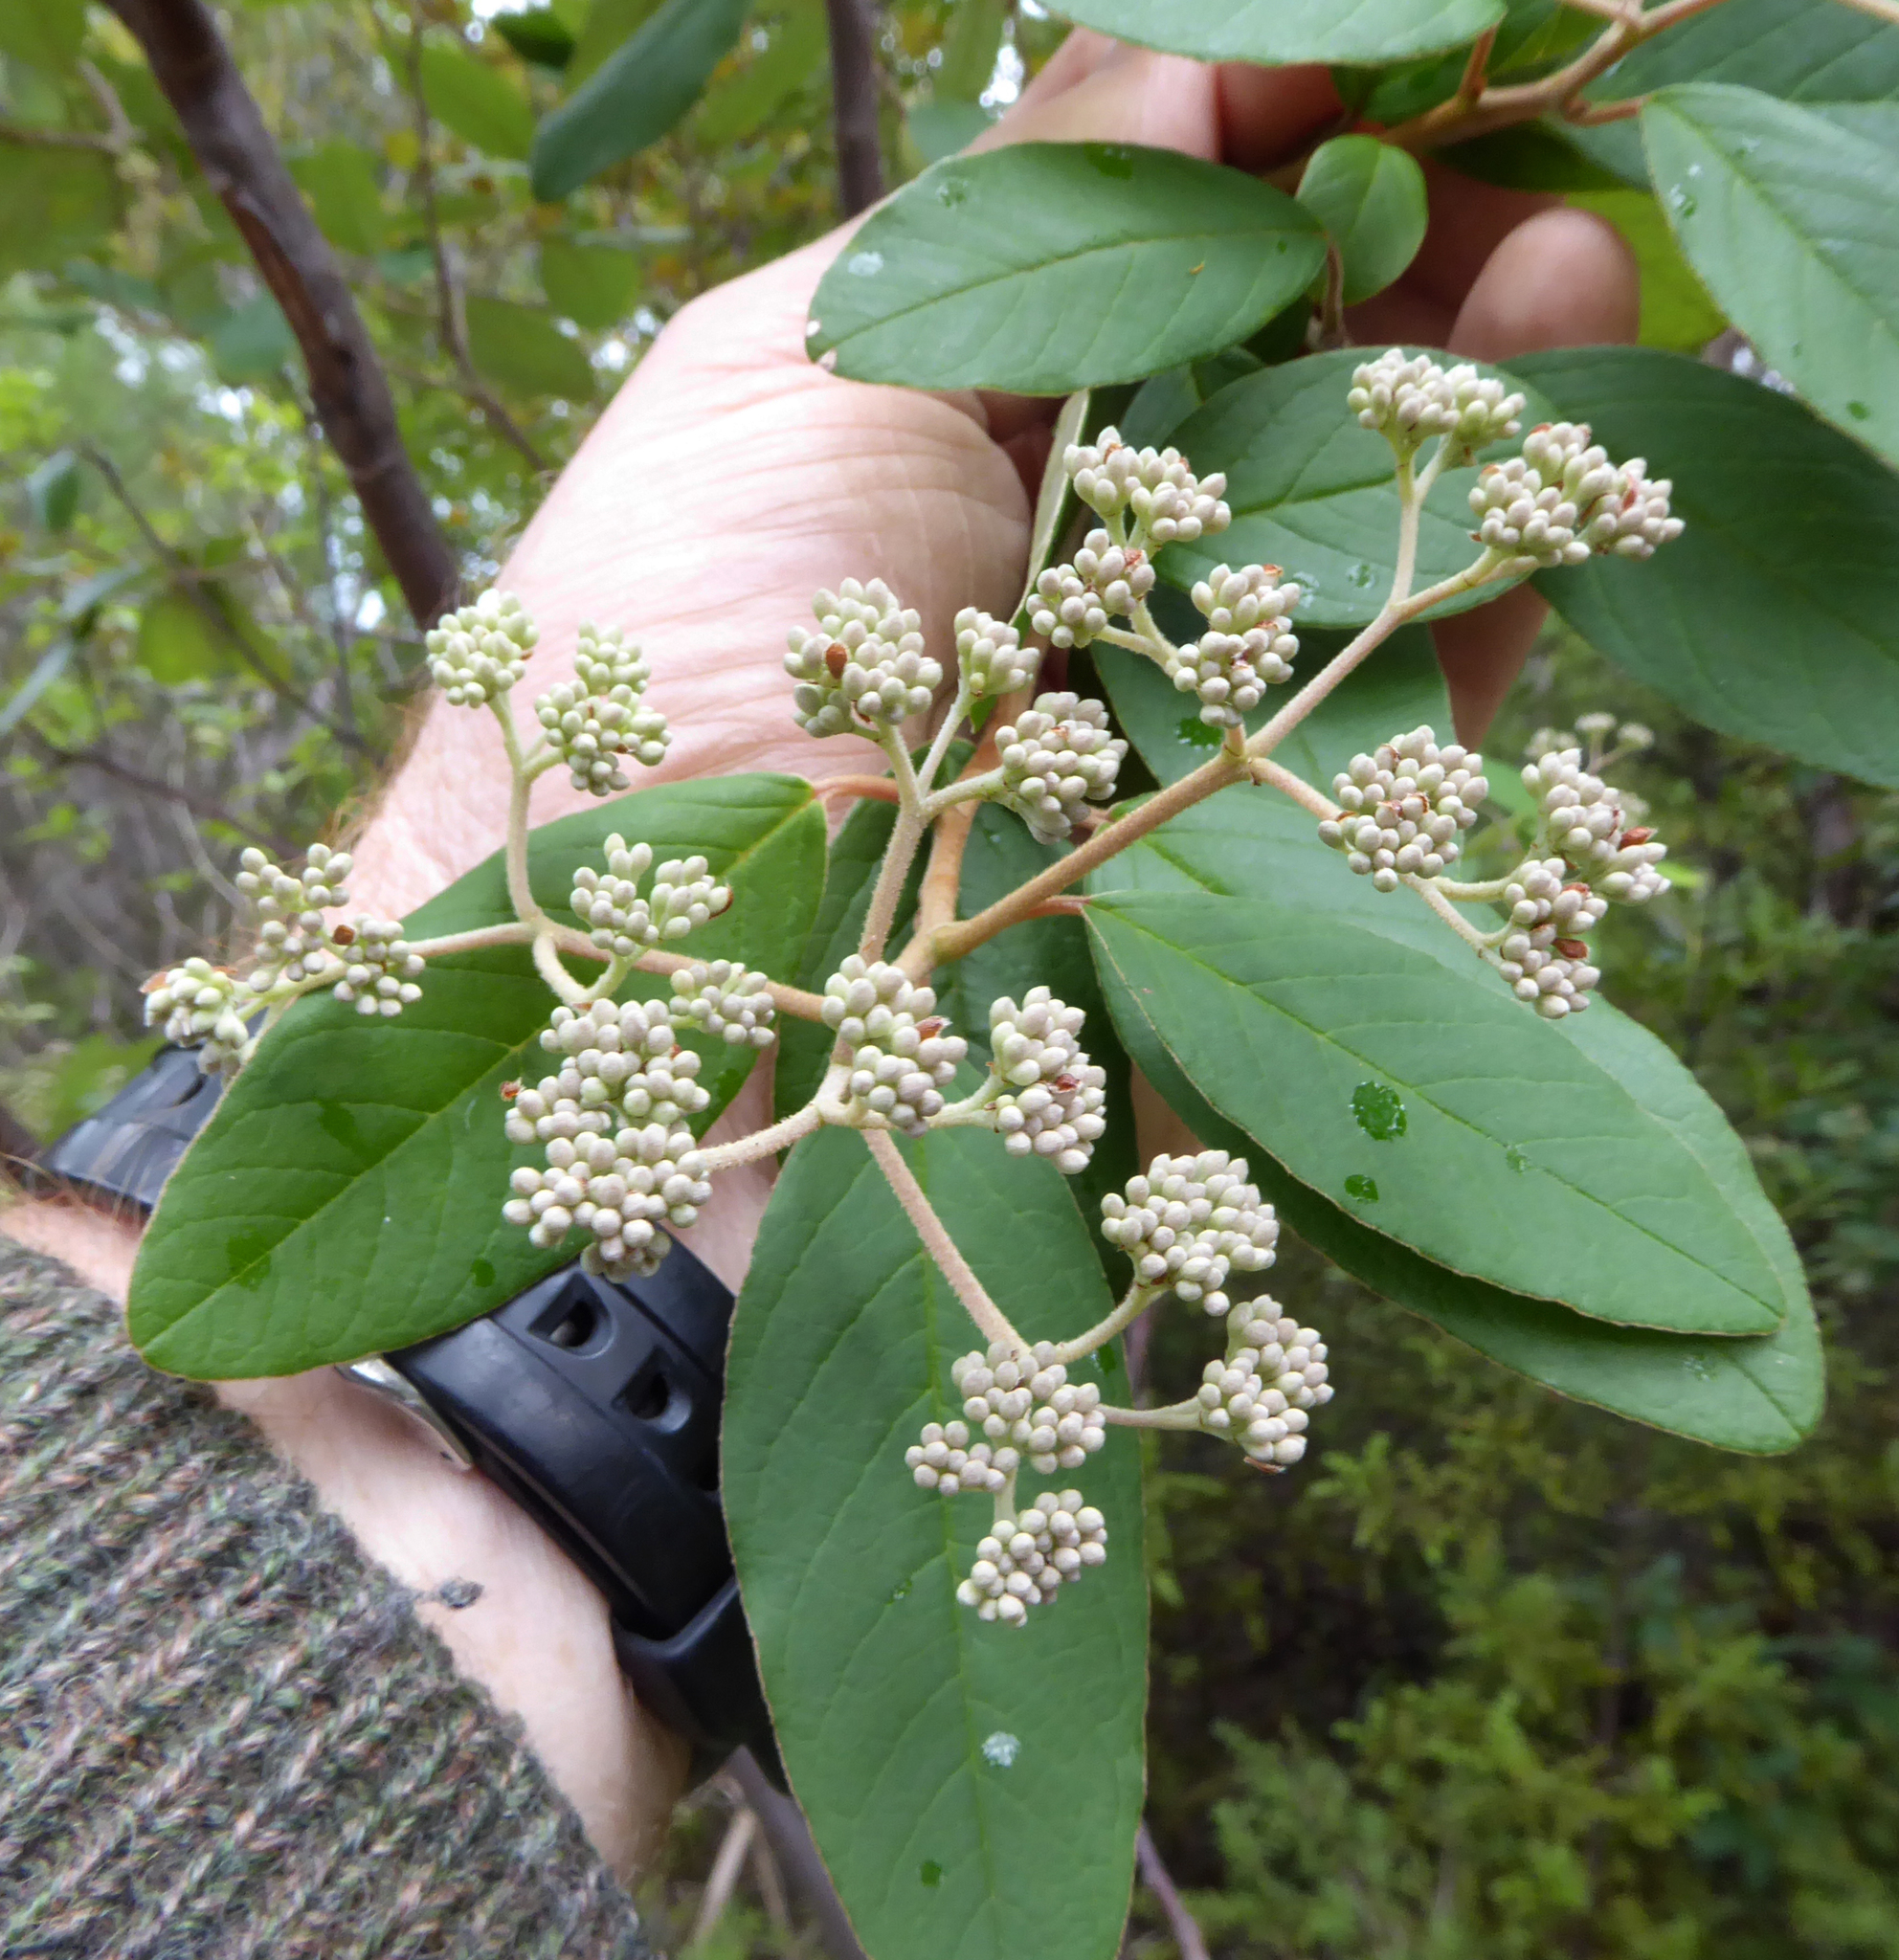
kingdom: Plantae
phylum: Tracheophyta
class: Magnoliopsida
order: Rosales
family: Rhamnaceae
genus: Pomaderris
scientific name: Pomaderris kumeraho
